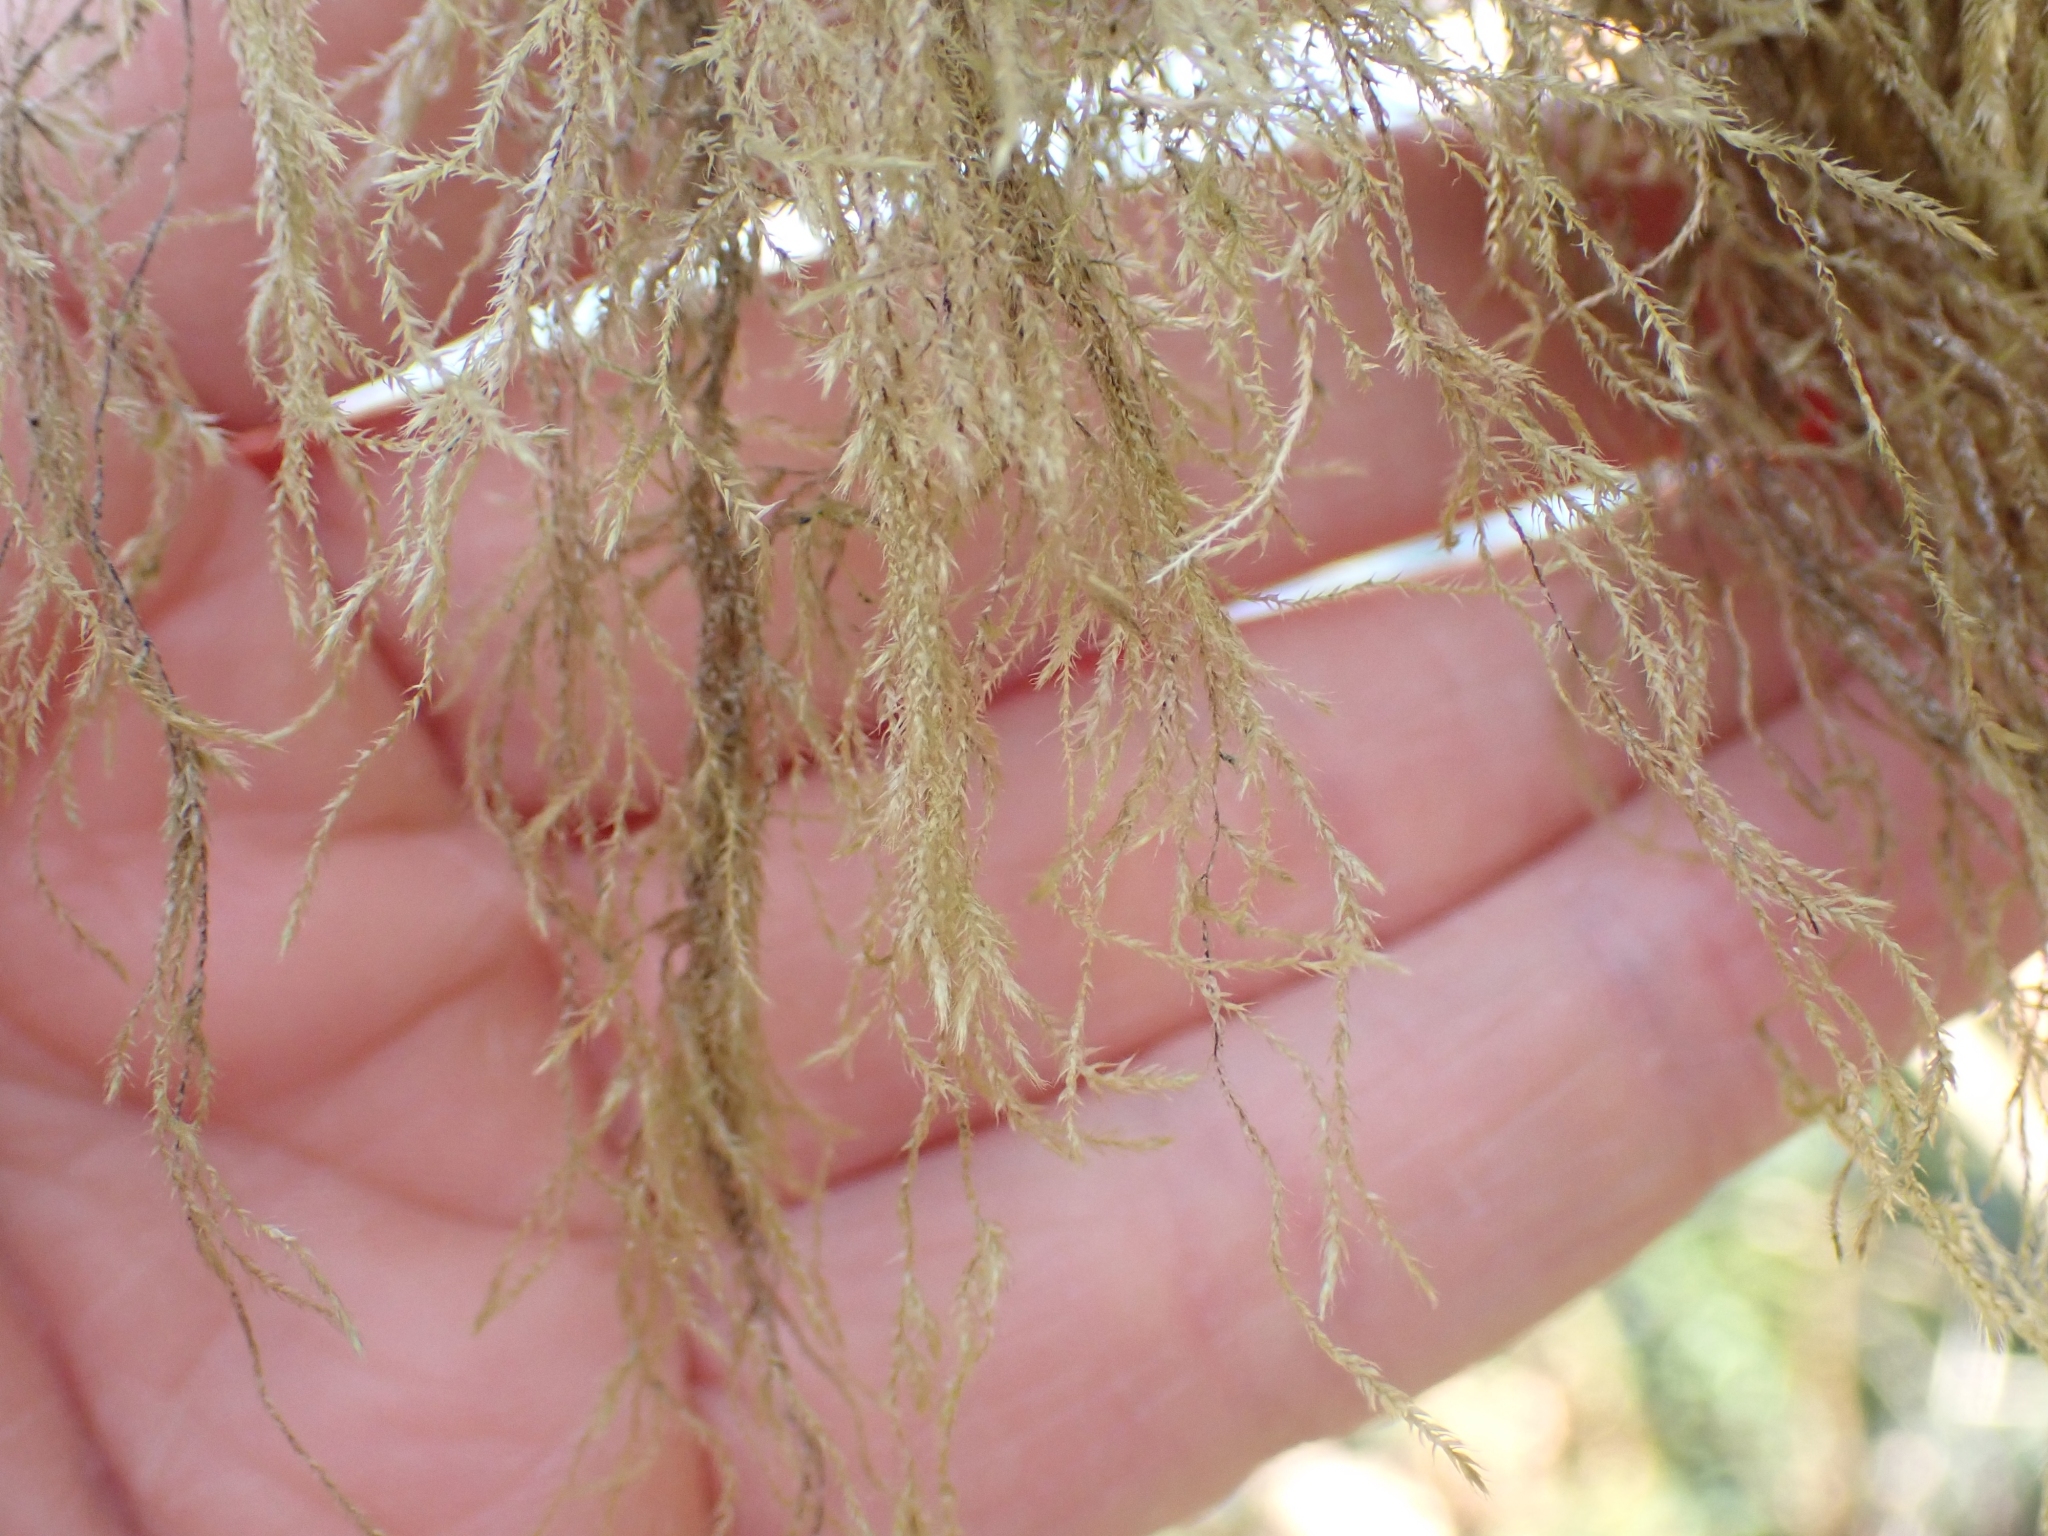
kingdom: Plantae
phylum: Bryophyta
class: Bryopsida
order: Hypnales
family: Lembophyllaceae
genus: Pseudisothecium
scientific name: Pseudisothecium stoloniferum
